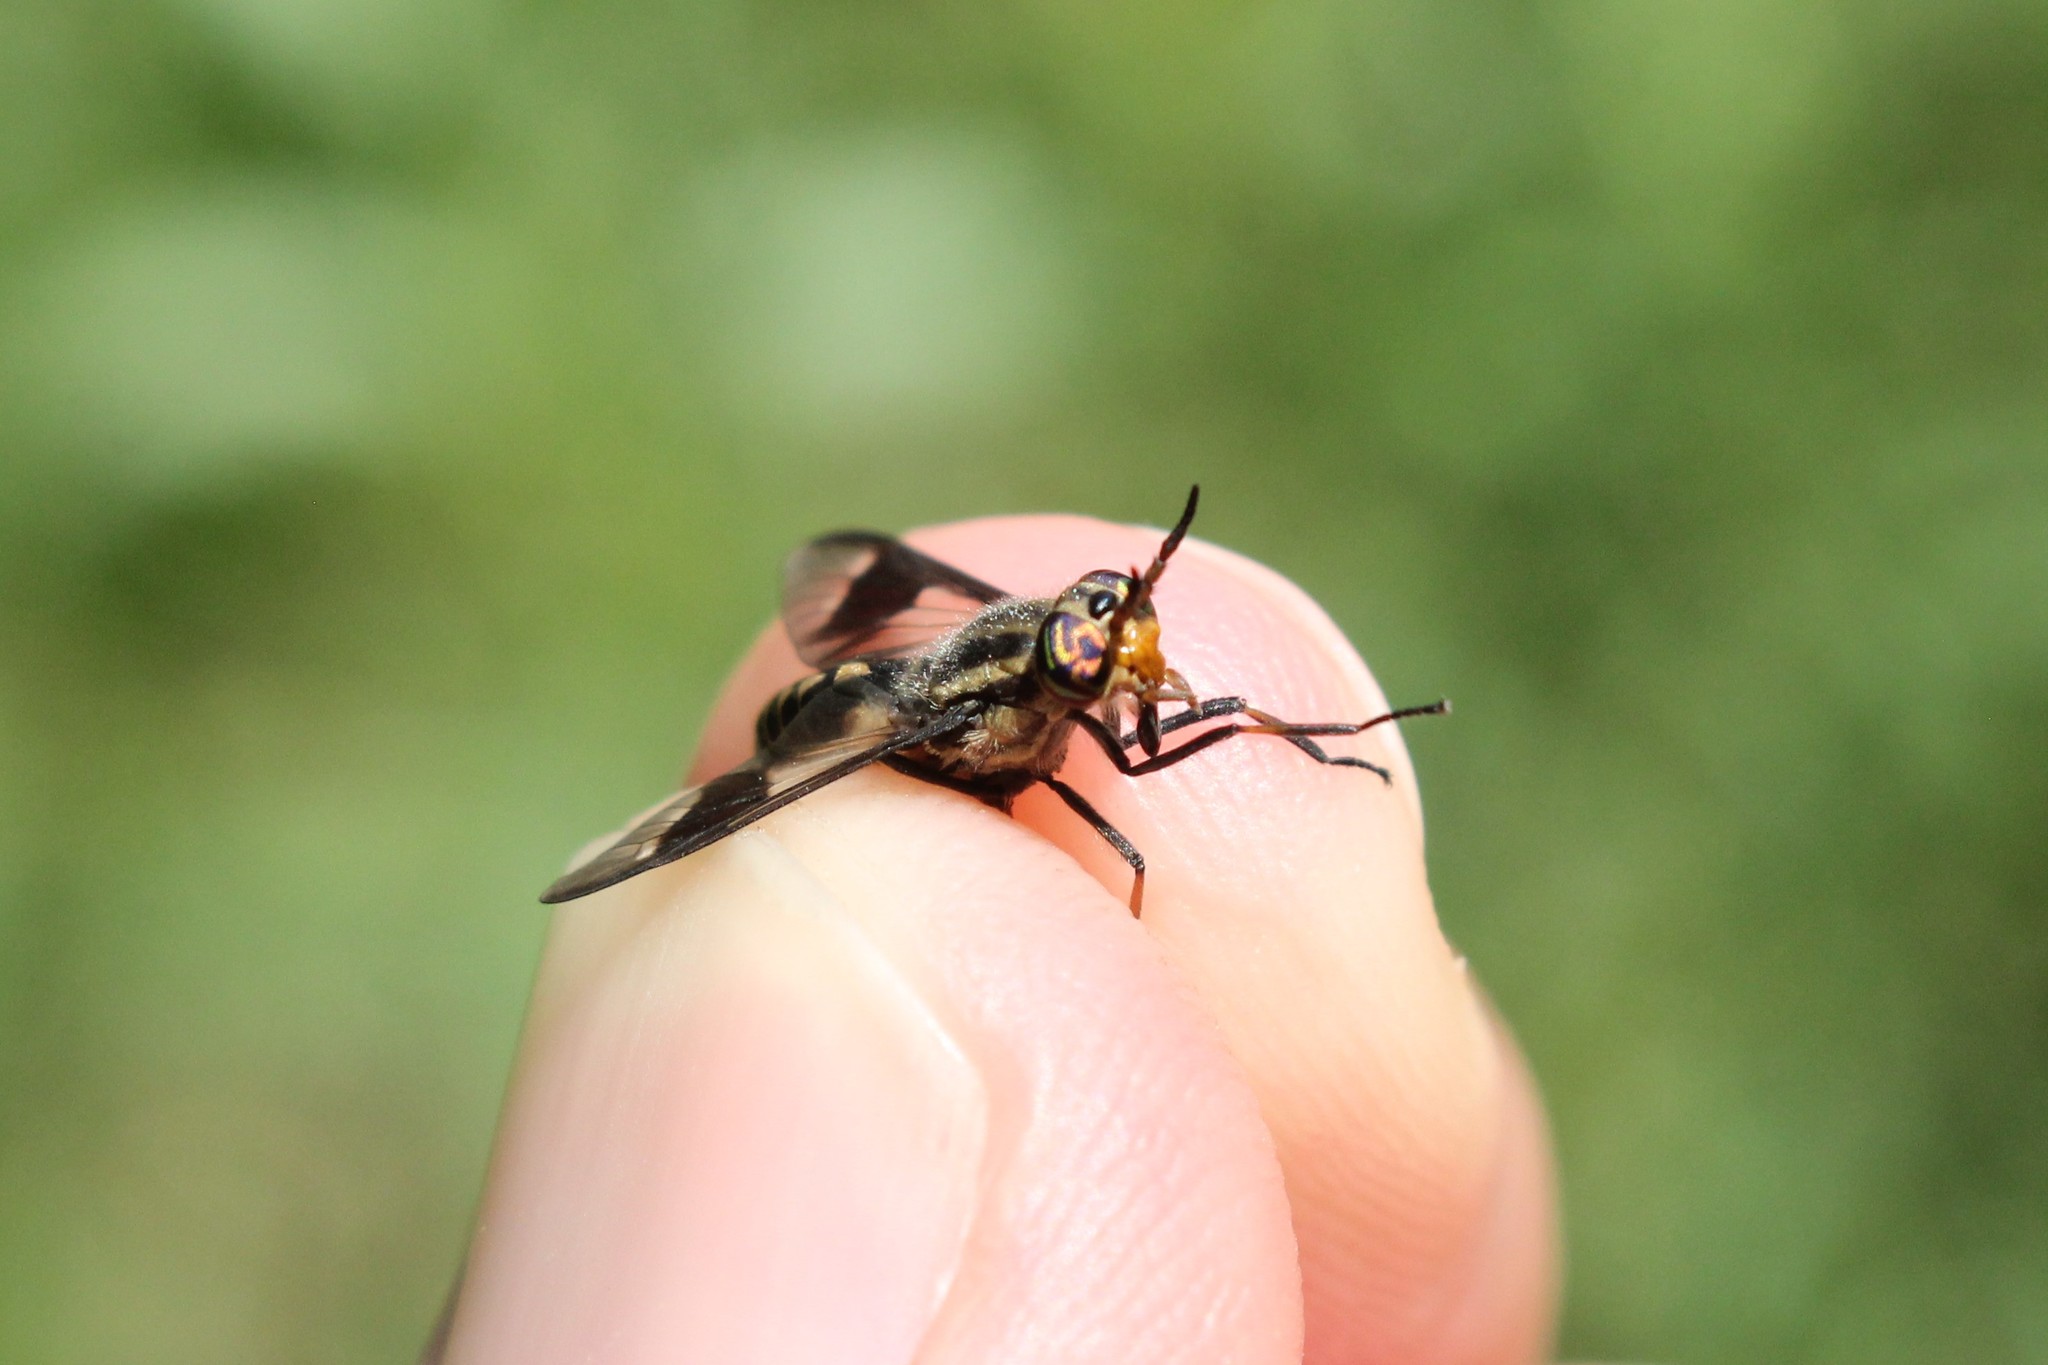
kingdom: Animalia
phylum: Arthropoda
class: Insecta
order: Diptera
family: Tabanidae
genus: Chrysops
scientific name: Chrysops callidus
